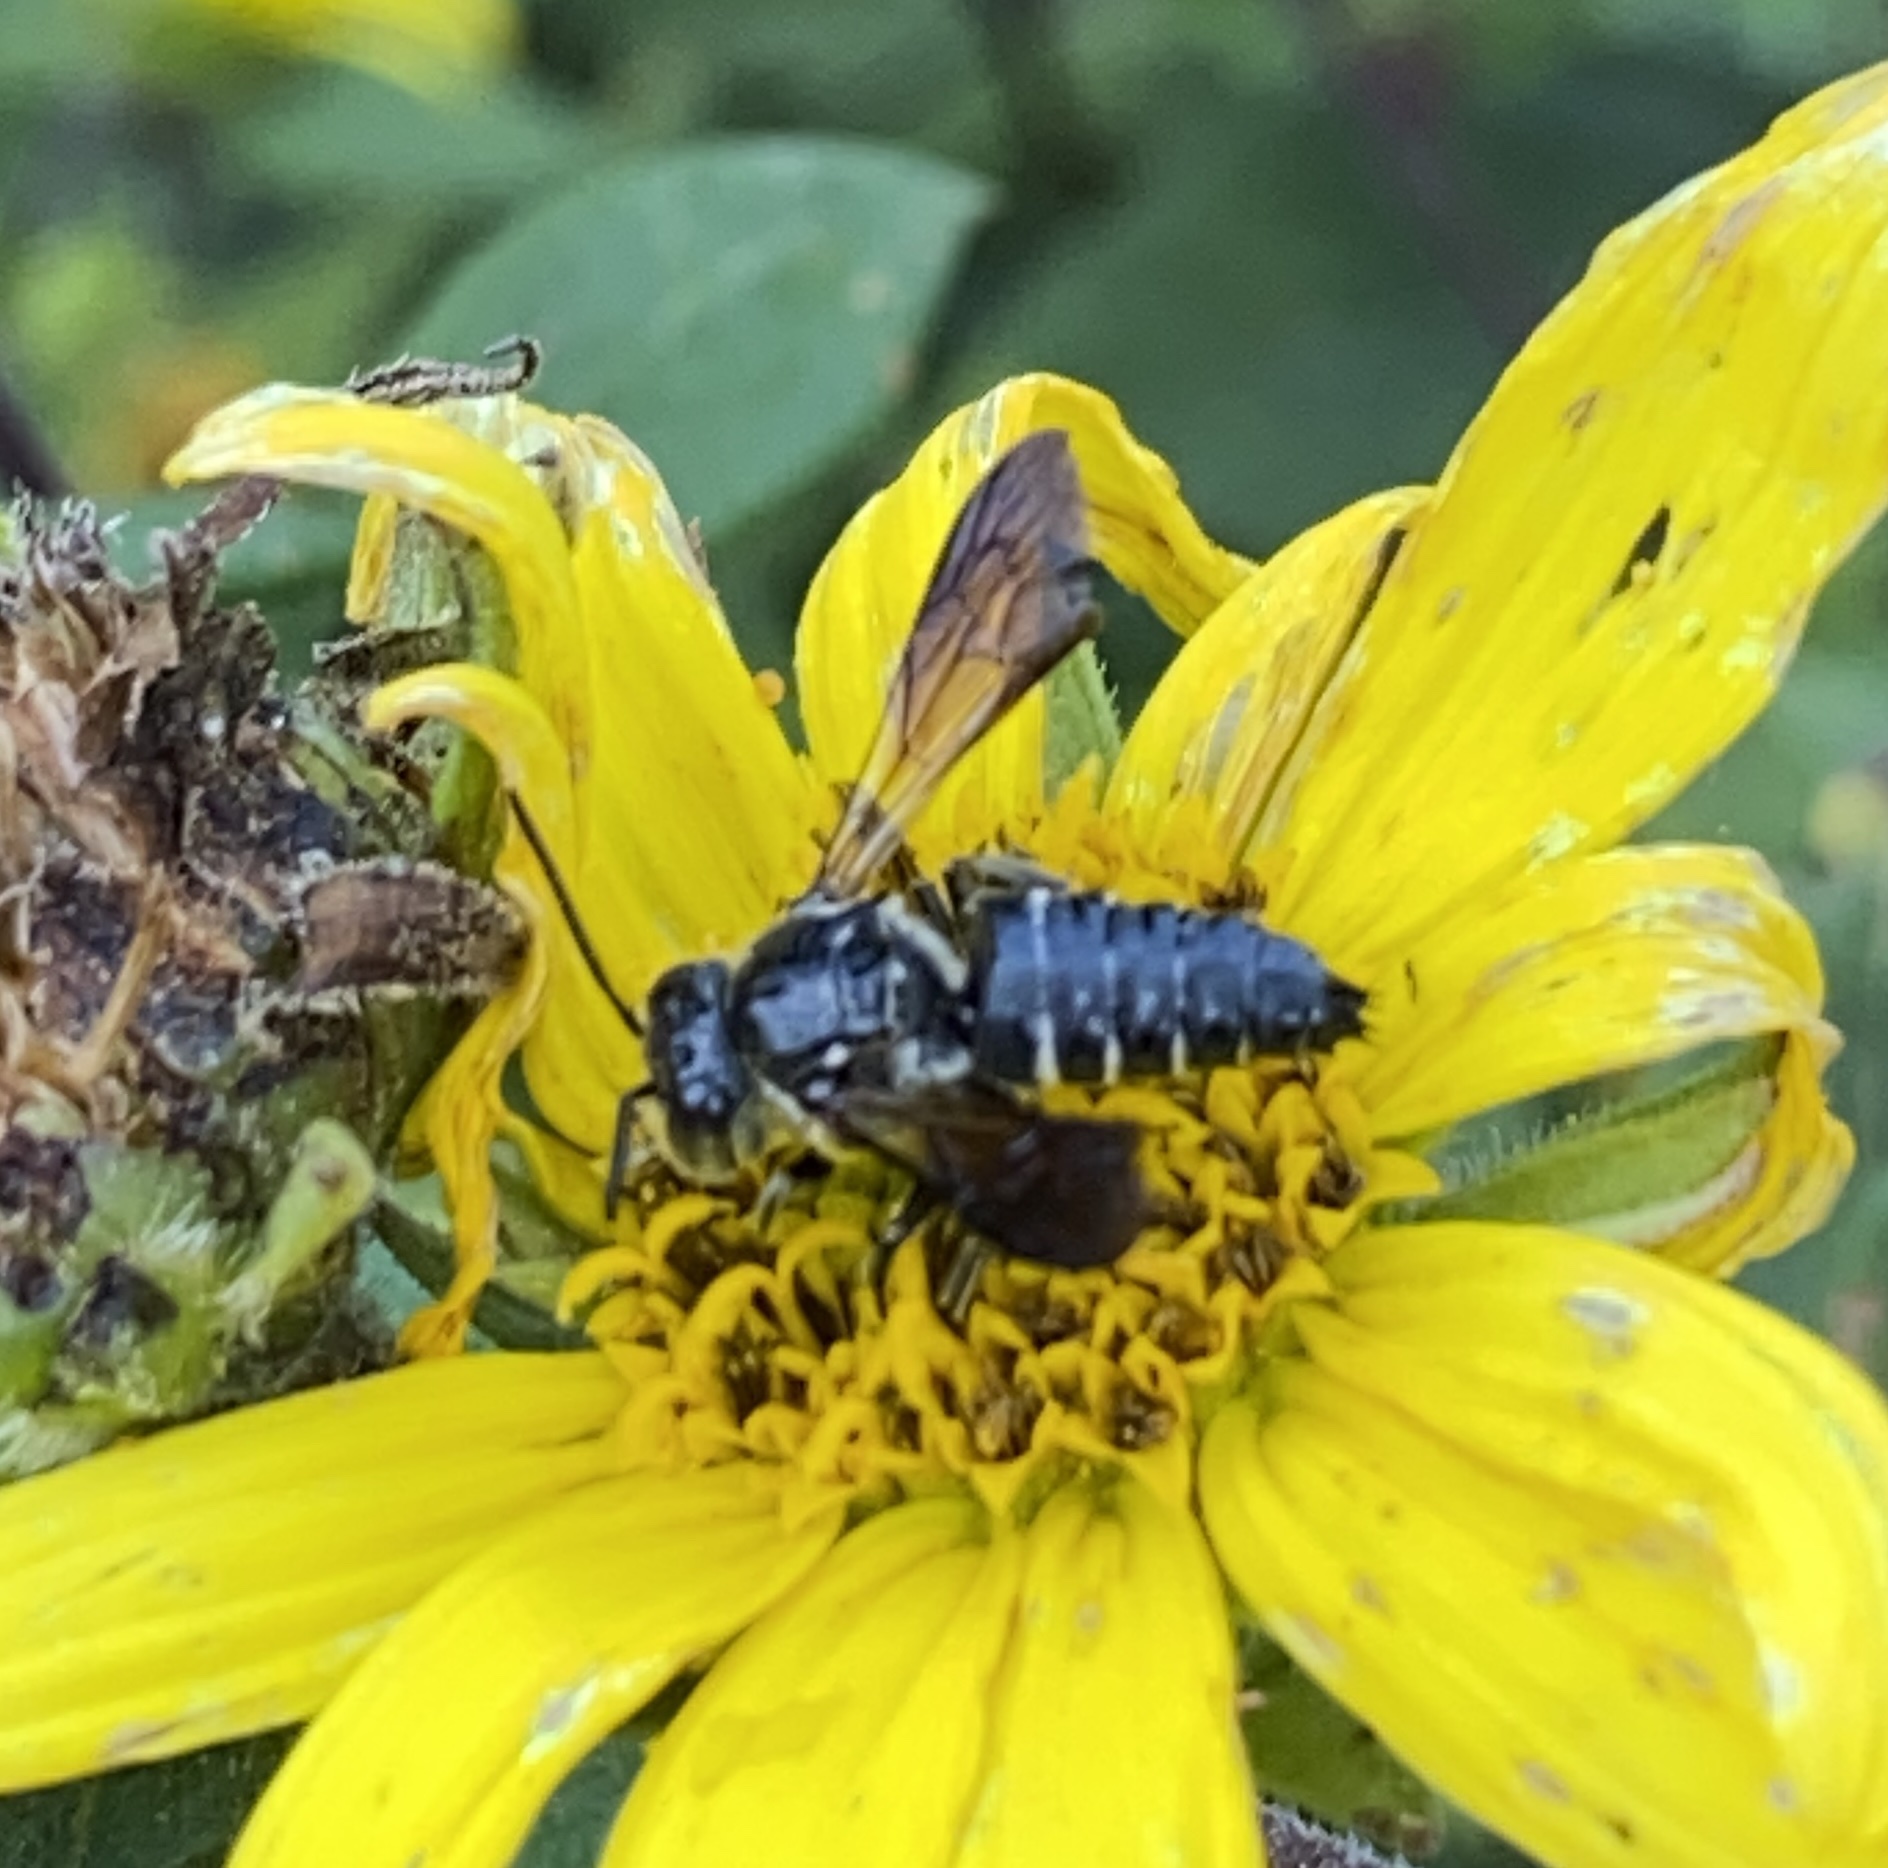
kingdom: Animalia
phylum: Arthropoda
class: Insecta
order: Hymenoptera
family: Megachilidae
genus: Coelioxys
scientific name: Coelioxys dolichos
